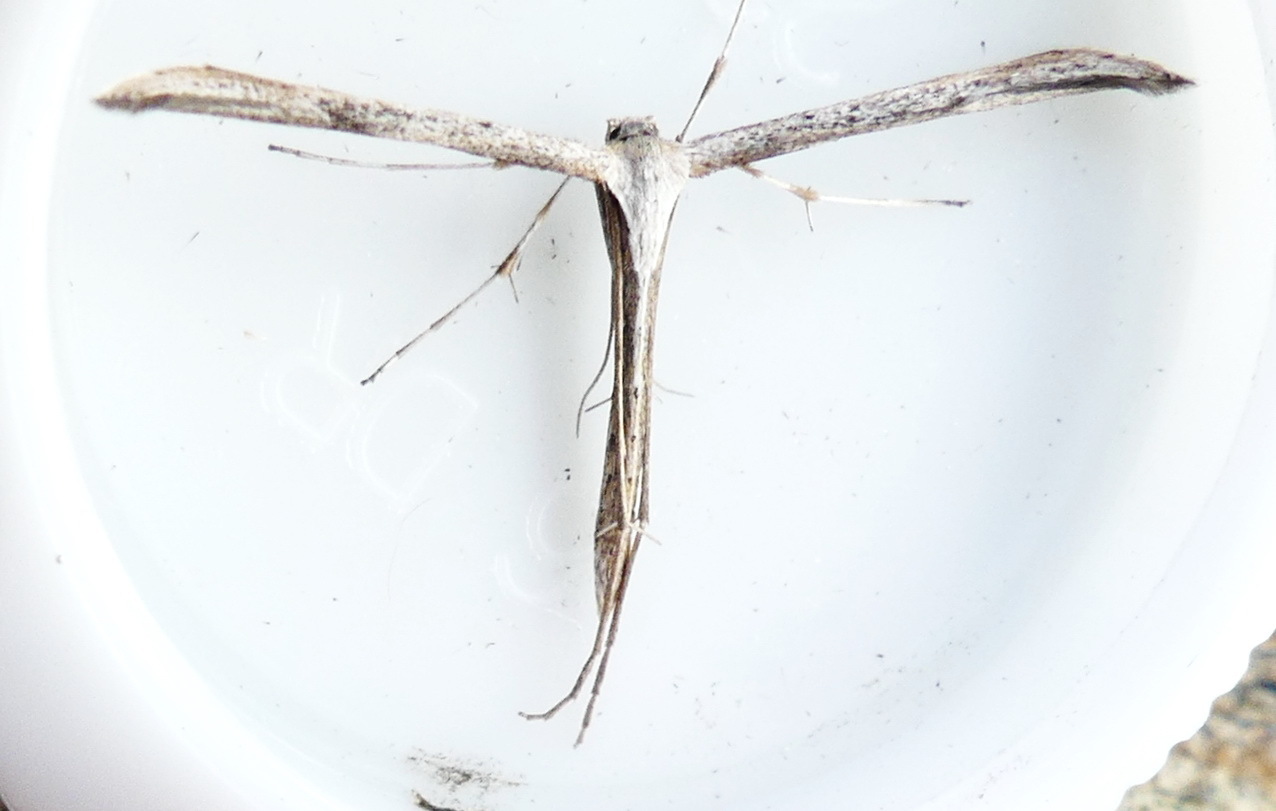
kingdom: Animalia
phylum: Arthropoda
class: Insecta
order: Lepidoptera
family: Pterophoridae
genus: Emmelina
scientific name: Emmelina monodactyla
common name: Common plume
